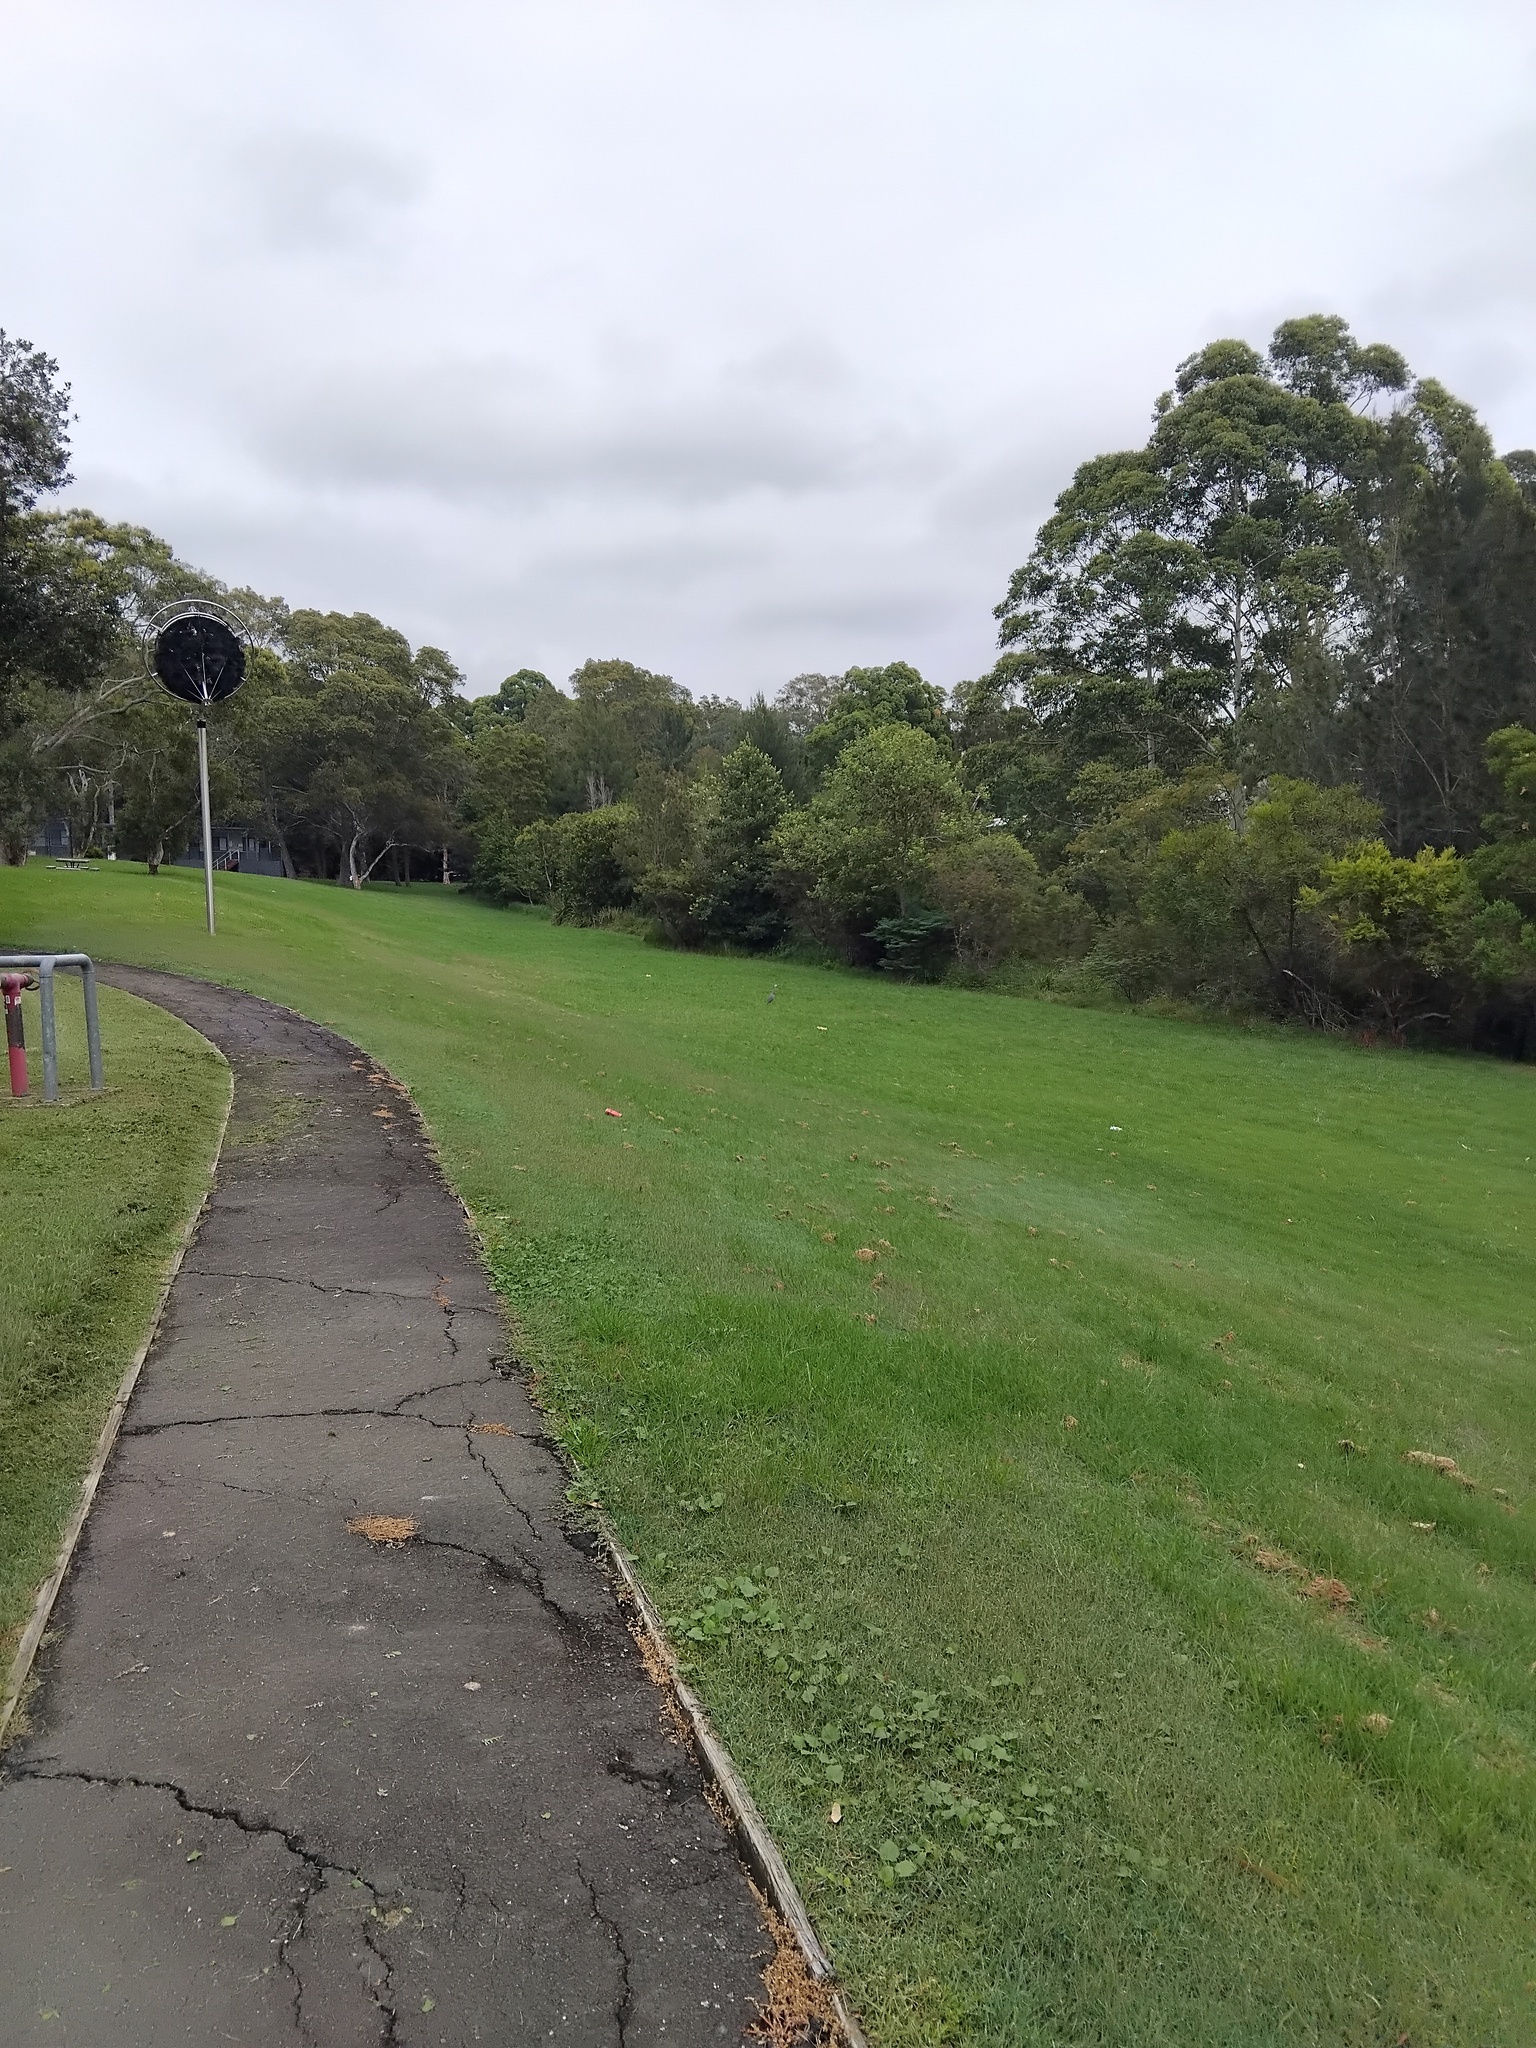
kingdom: Animalia
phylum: Chordata
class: Aves
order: Pelecaniformes
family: Ardeidae
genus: Egretta
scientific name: Egretta novaehollandiae
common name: White-faced heron
